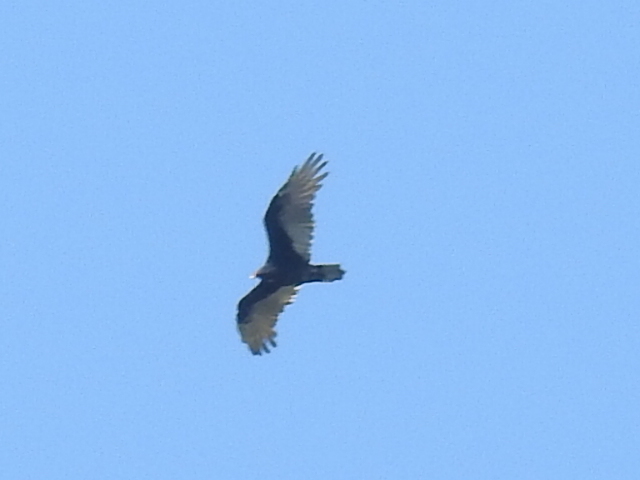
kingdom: Animalia
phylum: Chordata
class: Aves
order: Accipitriformes
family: Cathartidae
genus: Cathartes
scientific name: Cathartes aura
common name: Turkey vulture
